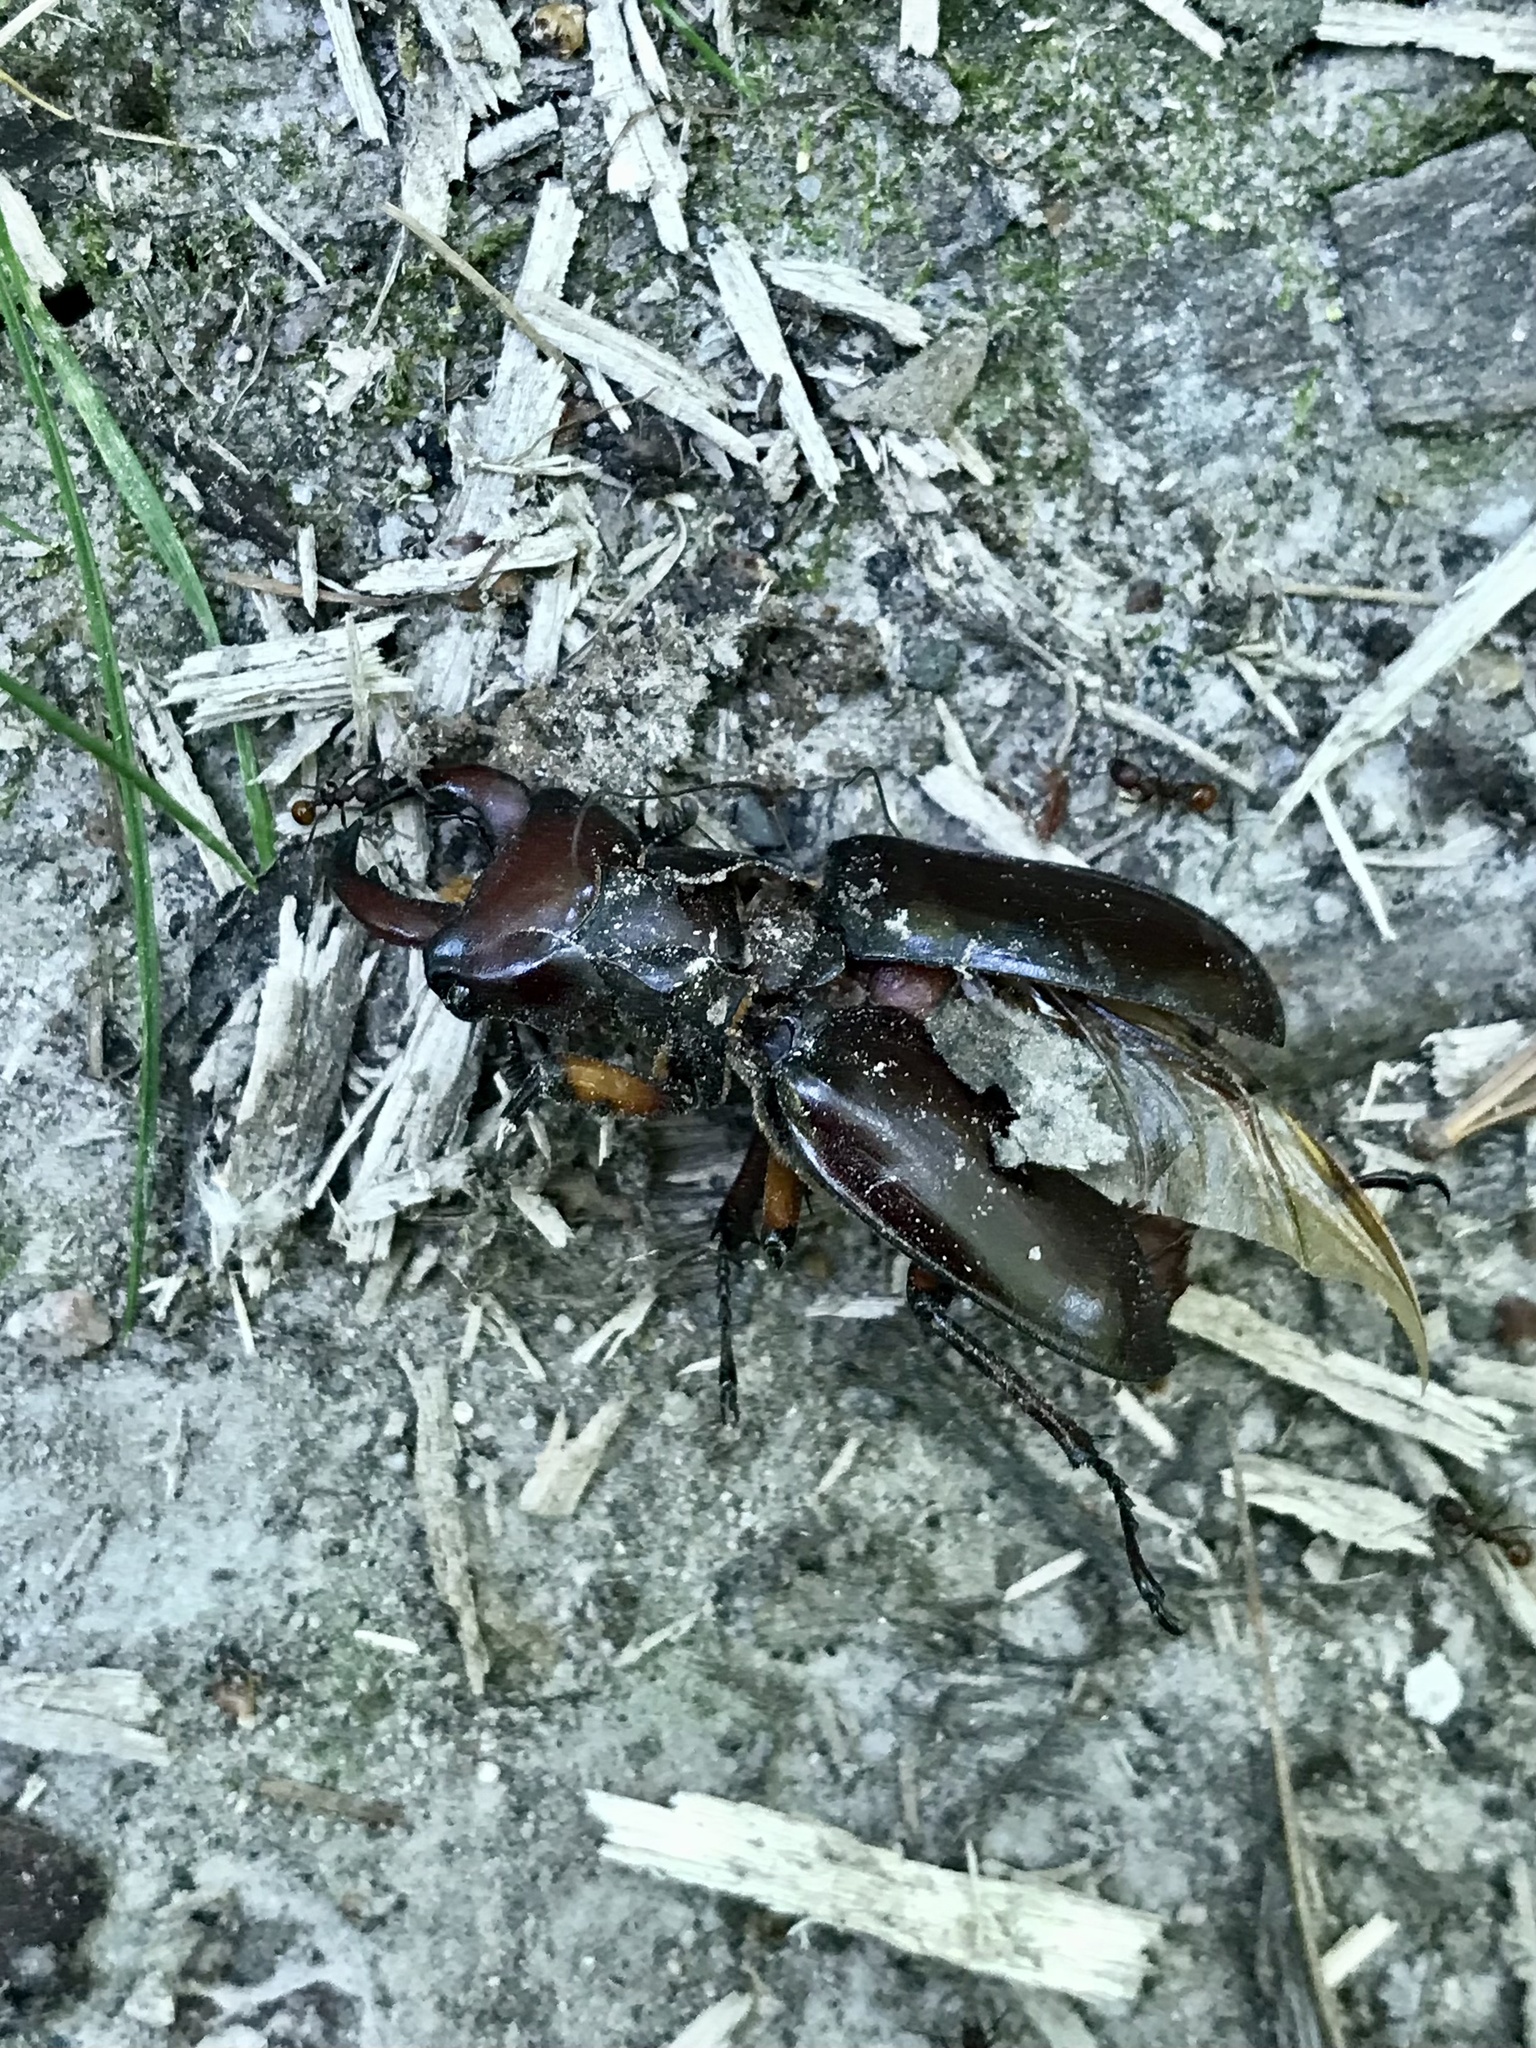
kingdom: Animalia
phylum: Arthropoda
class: Insecta
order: Coleoptera
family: Lucanidae
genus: Lucanus
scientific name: Lucanus capreolus
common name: Stag beetle
